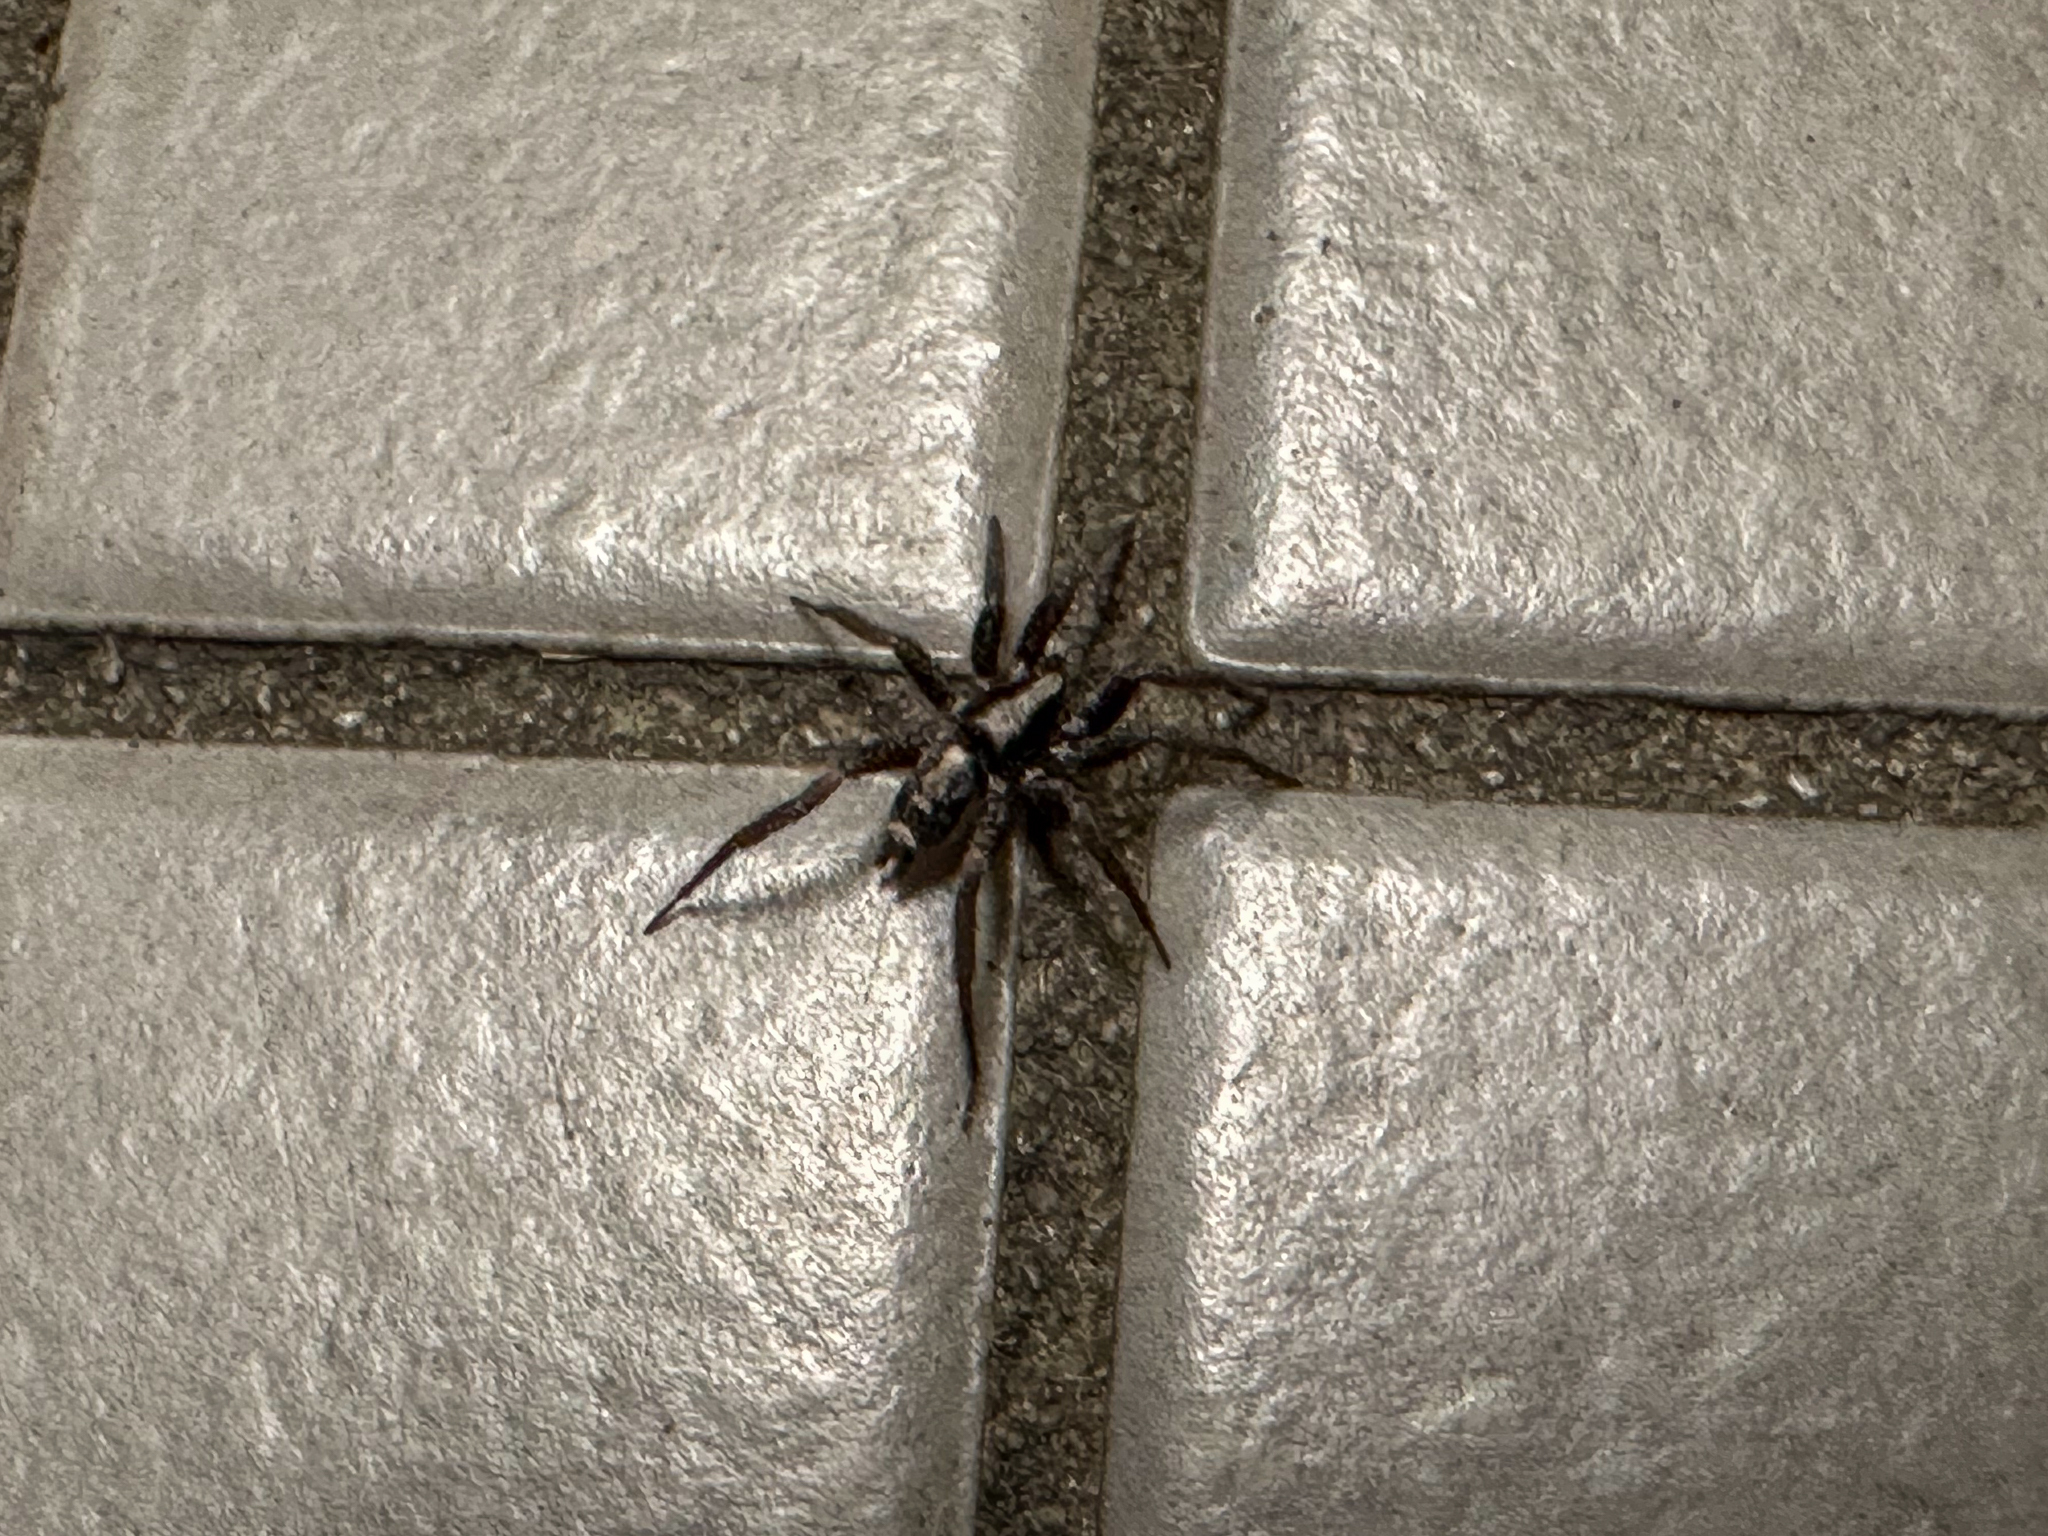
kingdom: Animalia
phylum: Arthropoda
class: Arachnida
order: Araneae
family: Gnaphosidae
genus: Herpyllus
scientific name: Herpyllus ecclesiasticus
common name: Eastern parson spider
